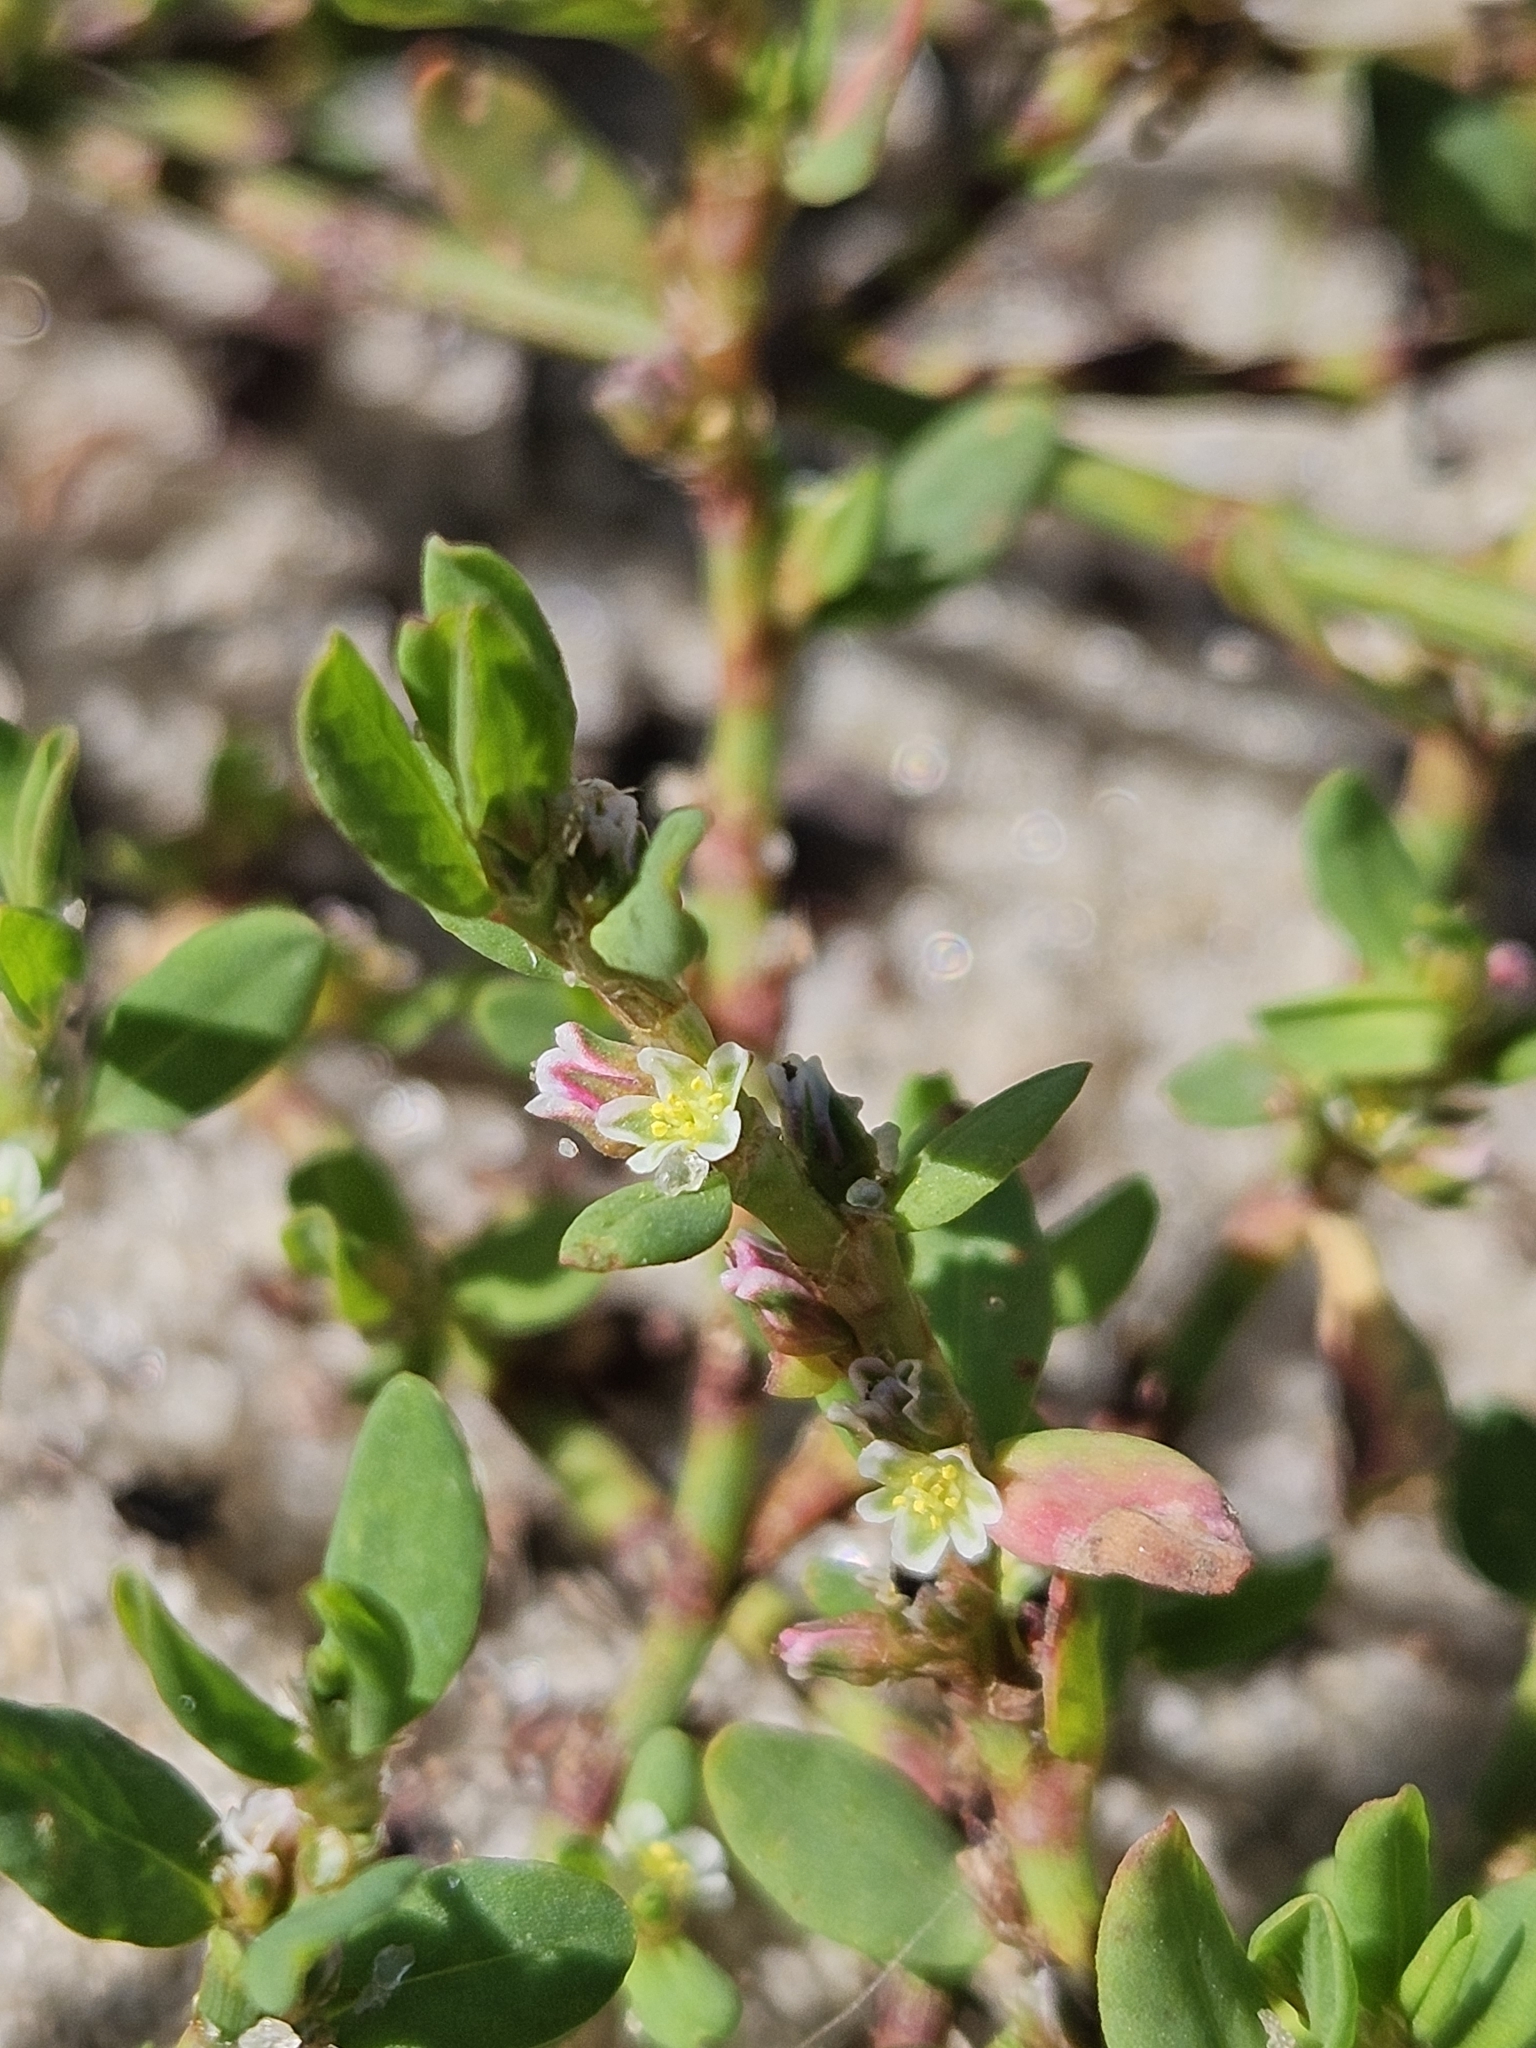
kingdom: Plantae
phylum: Tracheophyta
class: Magnoliopsida
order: Caryophyllales
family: Polygonaceae
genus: Polygonum
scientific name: Polygonum aviculare
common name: Prostrate knotweed
